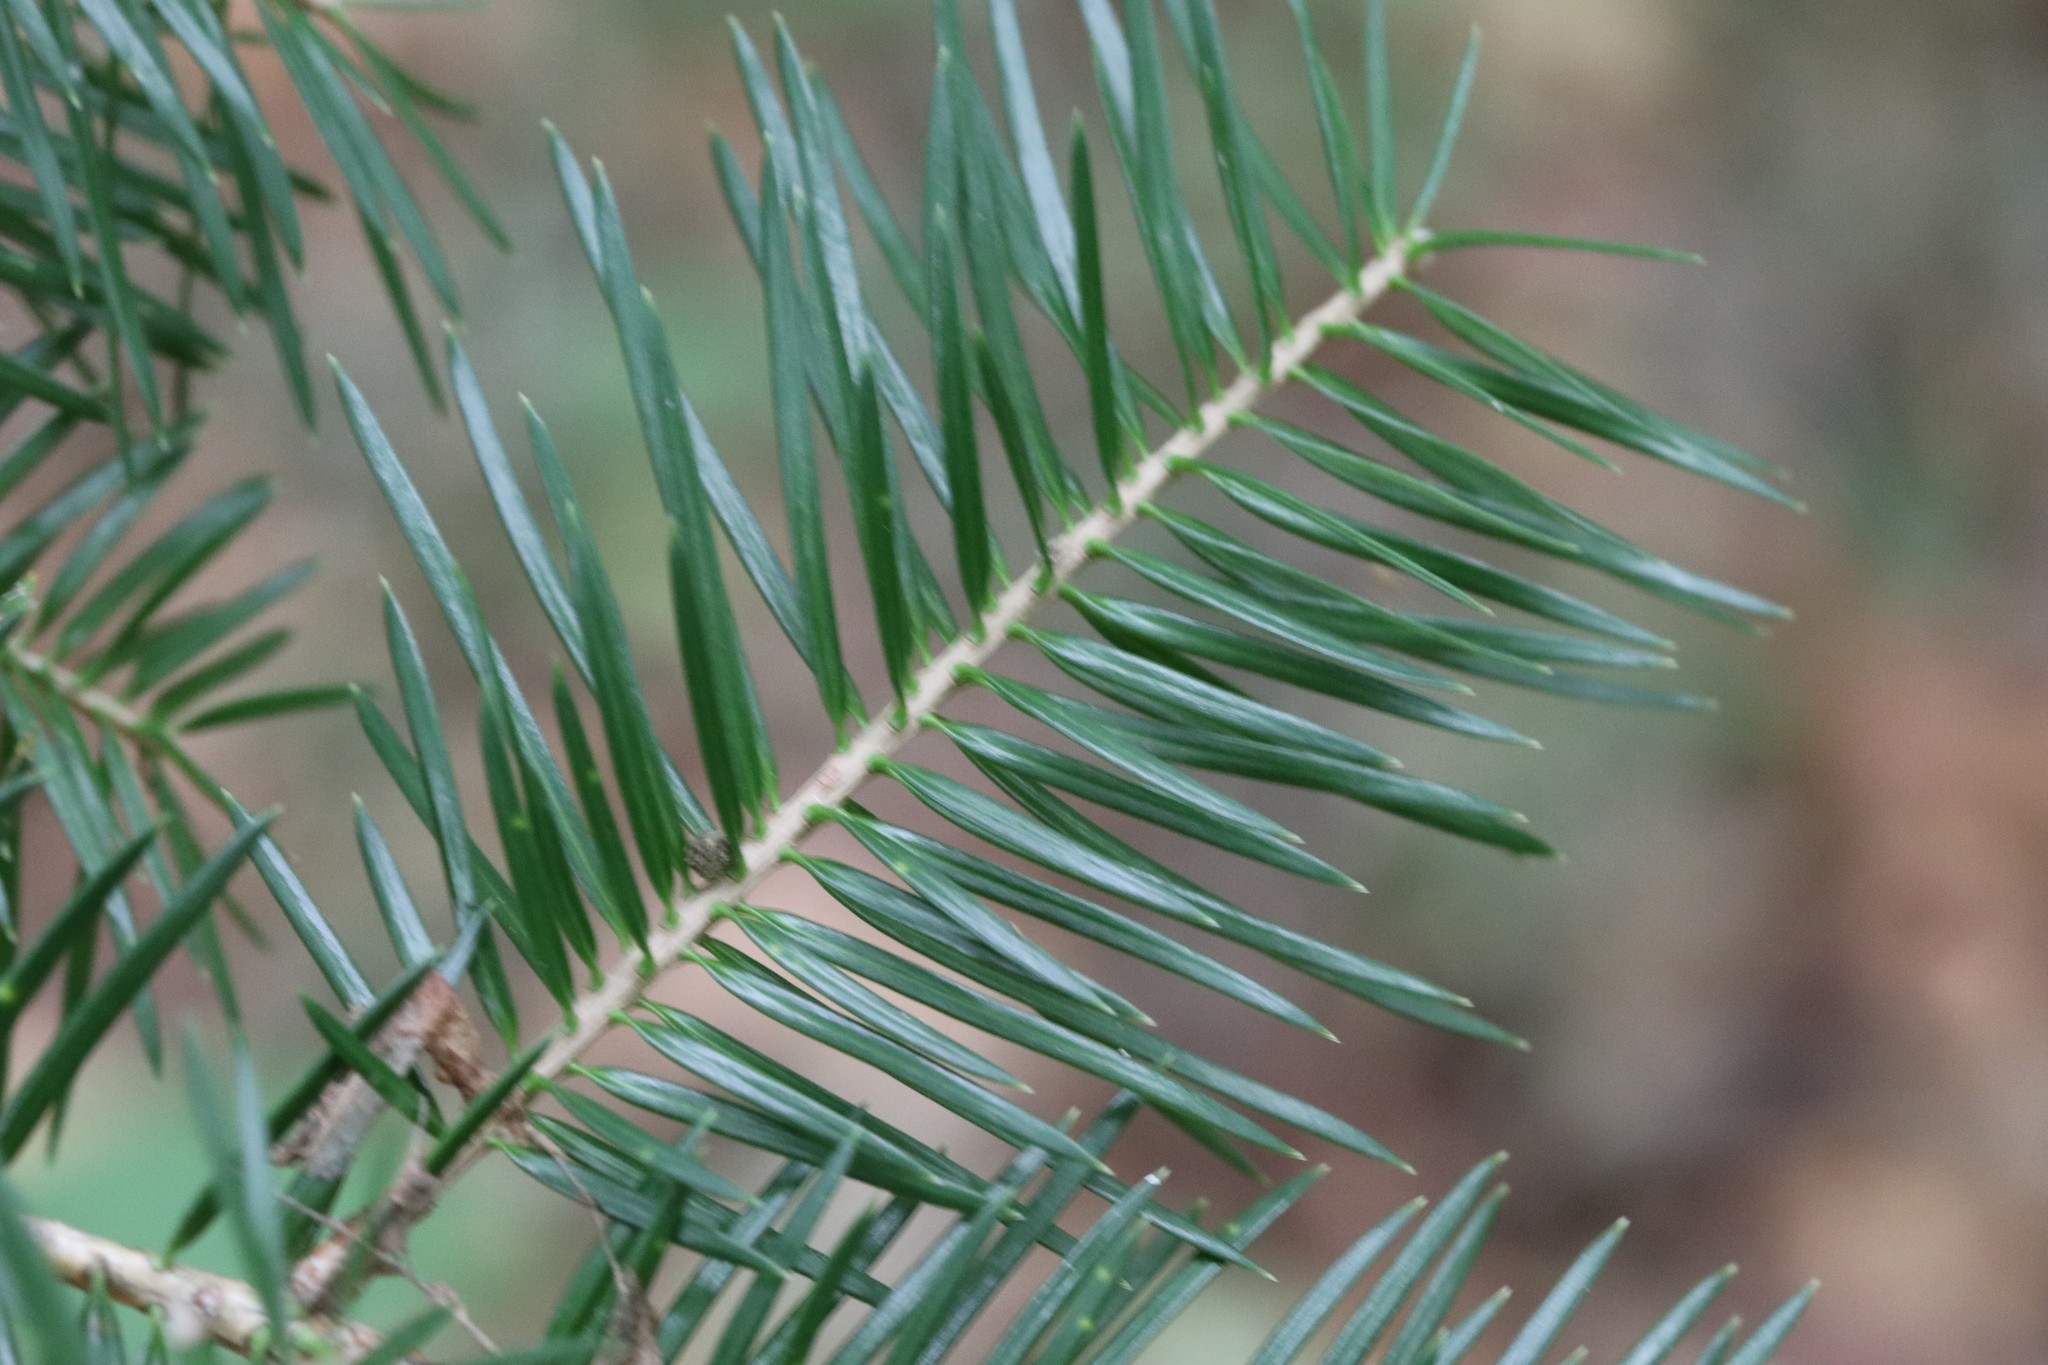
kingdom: Plantae
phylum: Tracheophyta
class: Pinopsida
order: Pinales
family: Pinaceae
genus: Abies
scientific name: Abies holophylla
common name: Manchurian fir
